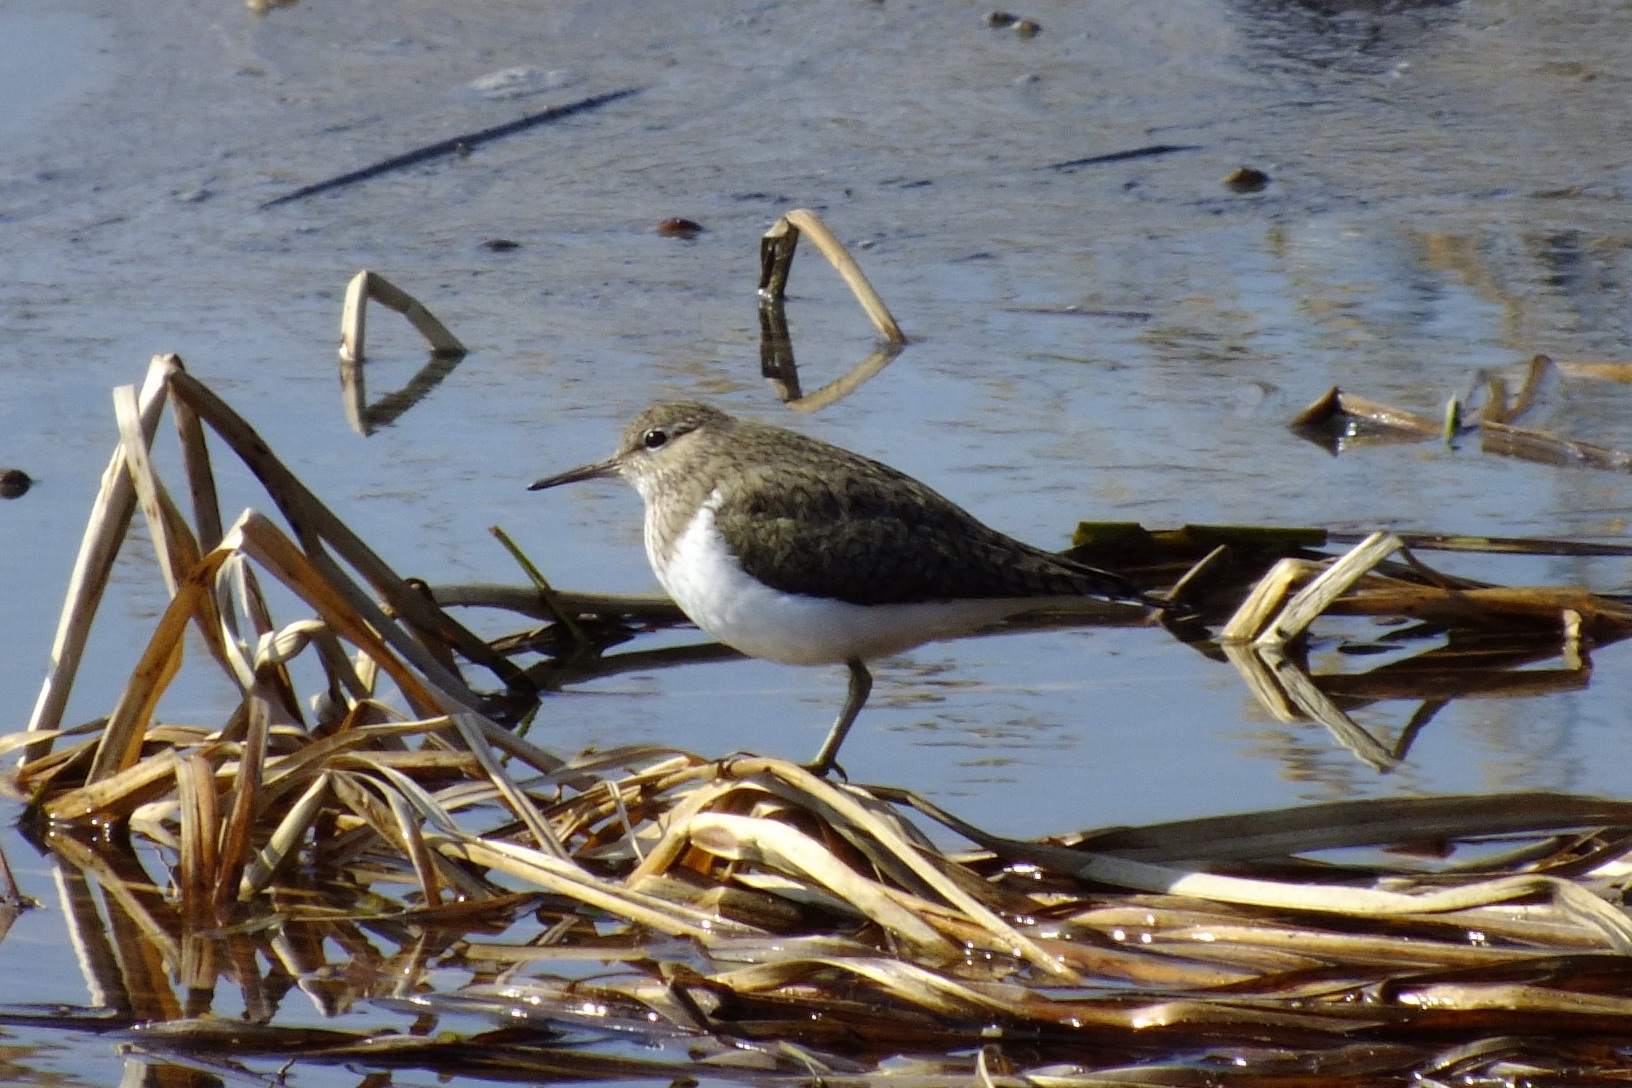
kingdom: Animalia
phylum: Chordata
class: Aves
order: Charadriiformes
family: Scolopacidae
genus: Actitis
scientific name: Actitis hypoleucos
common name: Common sandpiper
